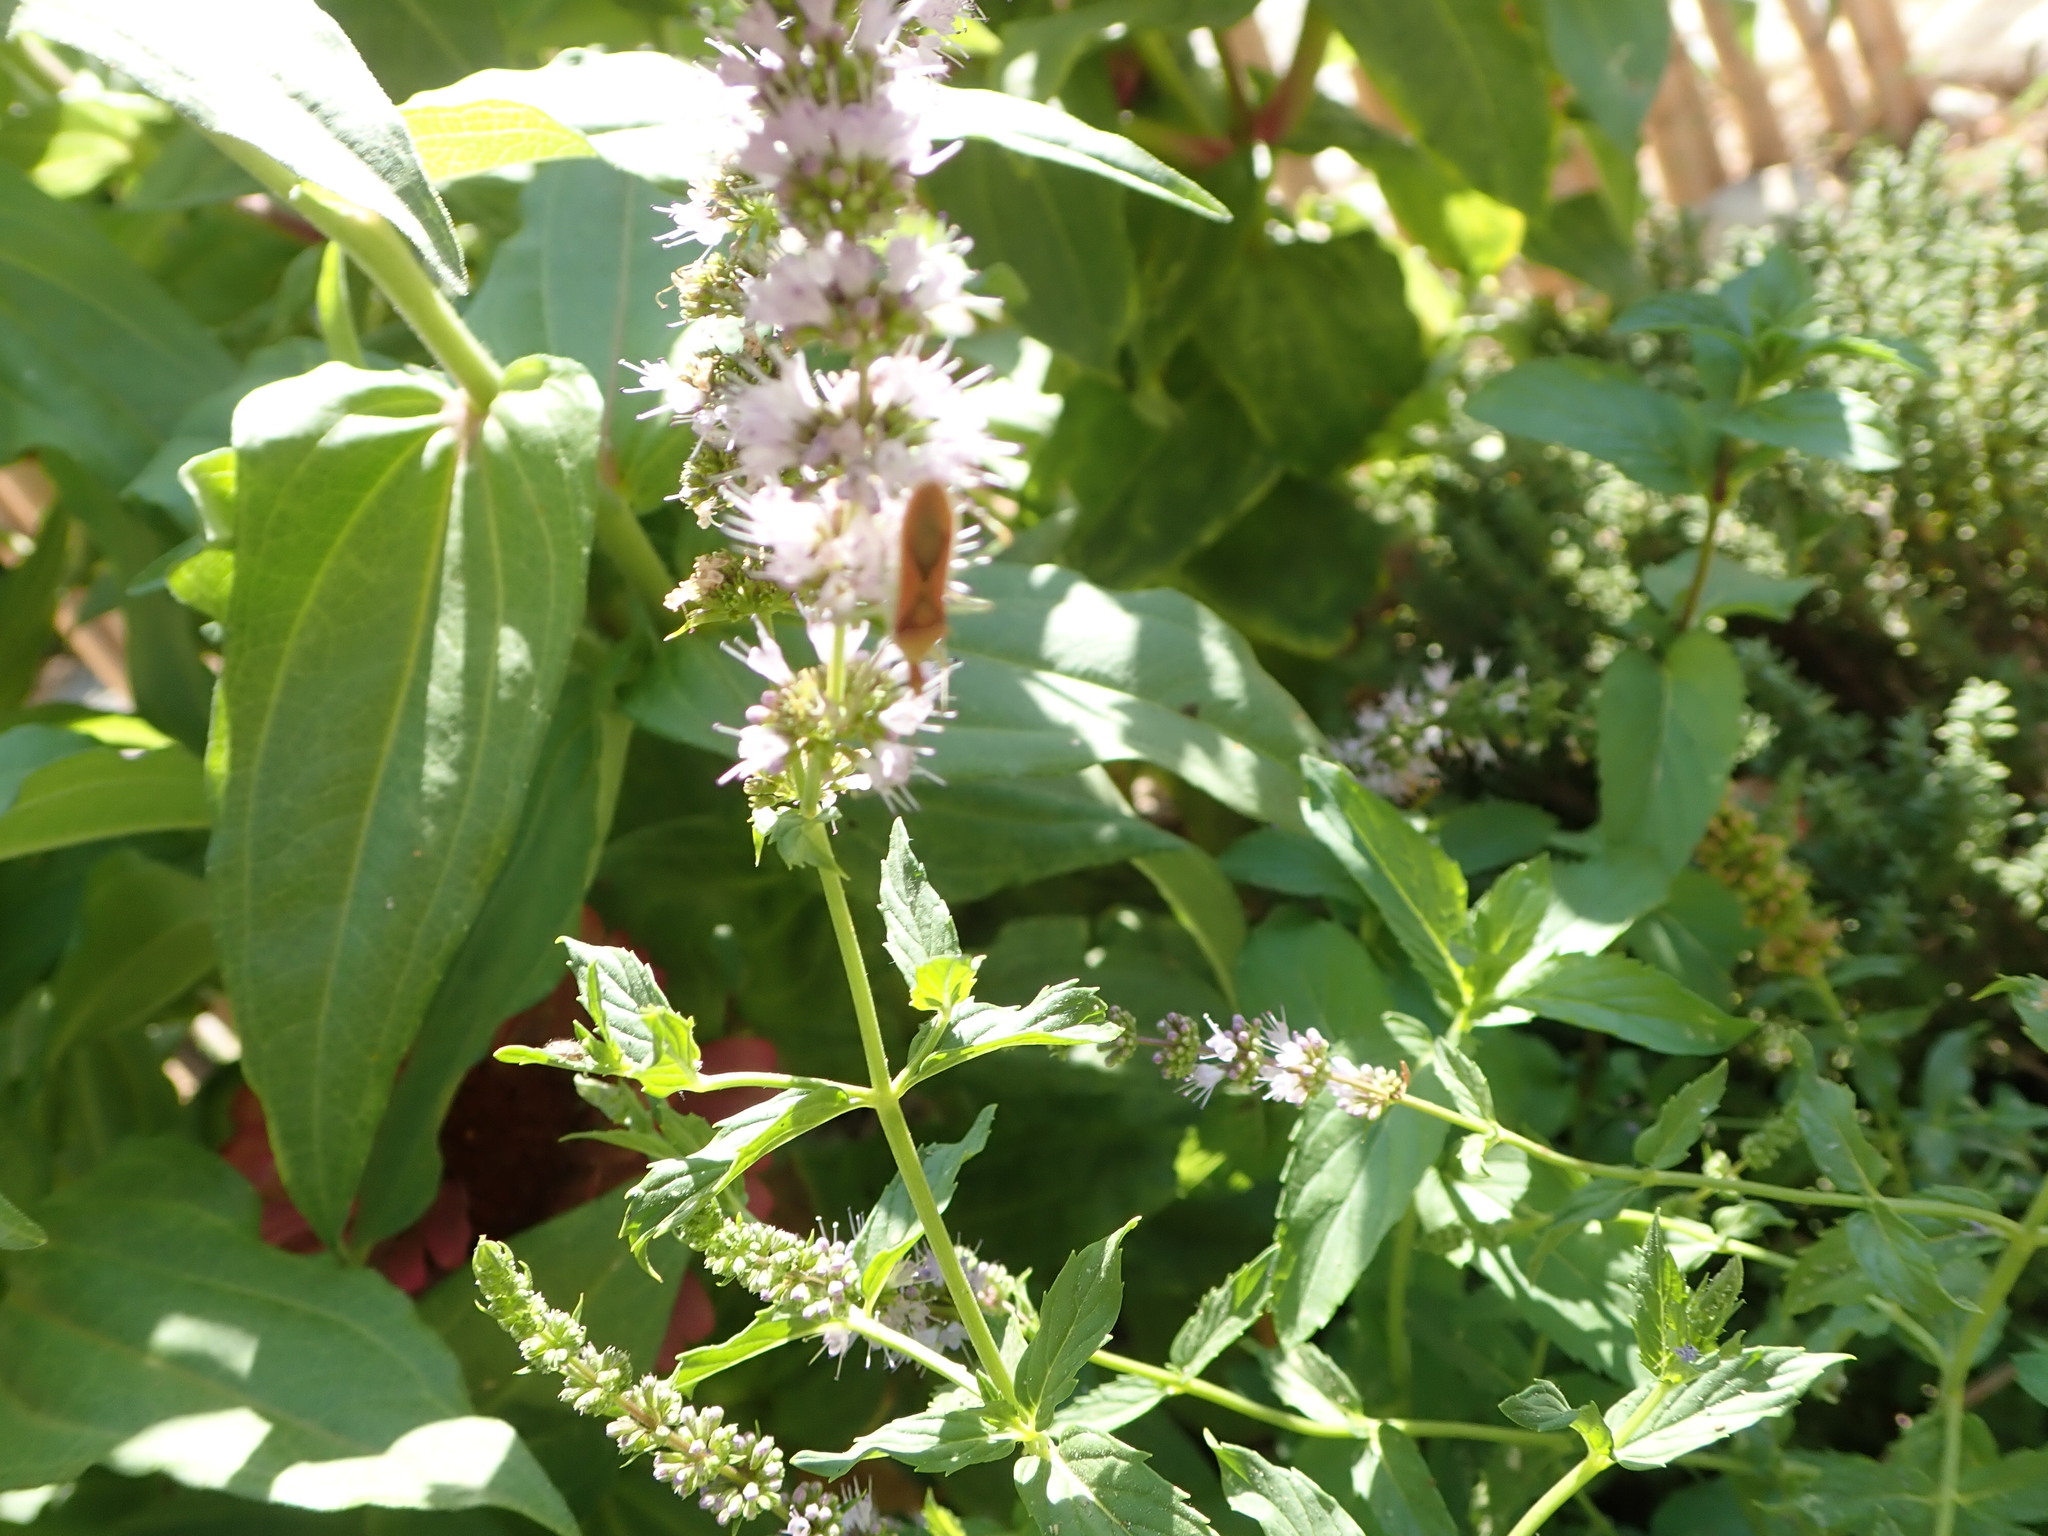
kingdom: Animalia
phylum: Arthropoda
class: Insecta
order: Hemiptera
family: Reduviidae
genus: Zelus
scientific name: Zelus renardii
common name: Assassin bug
